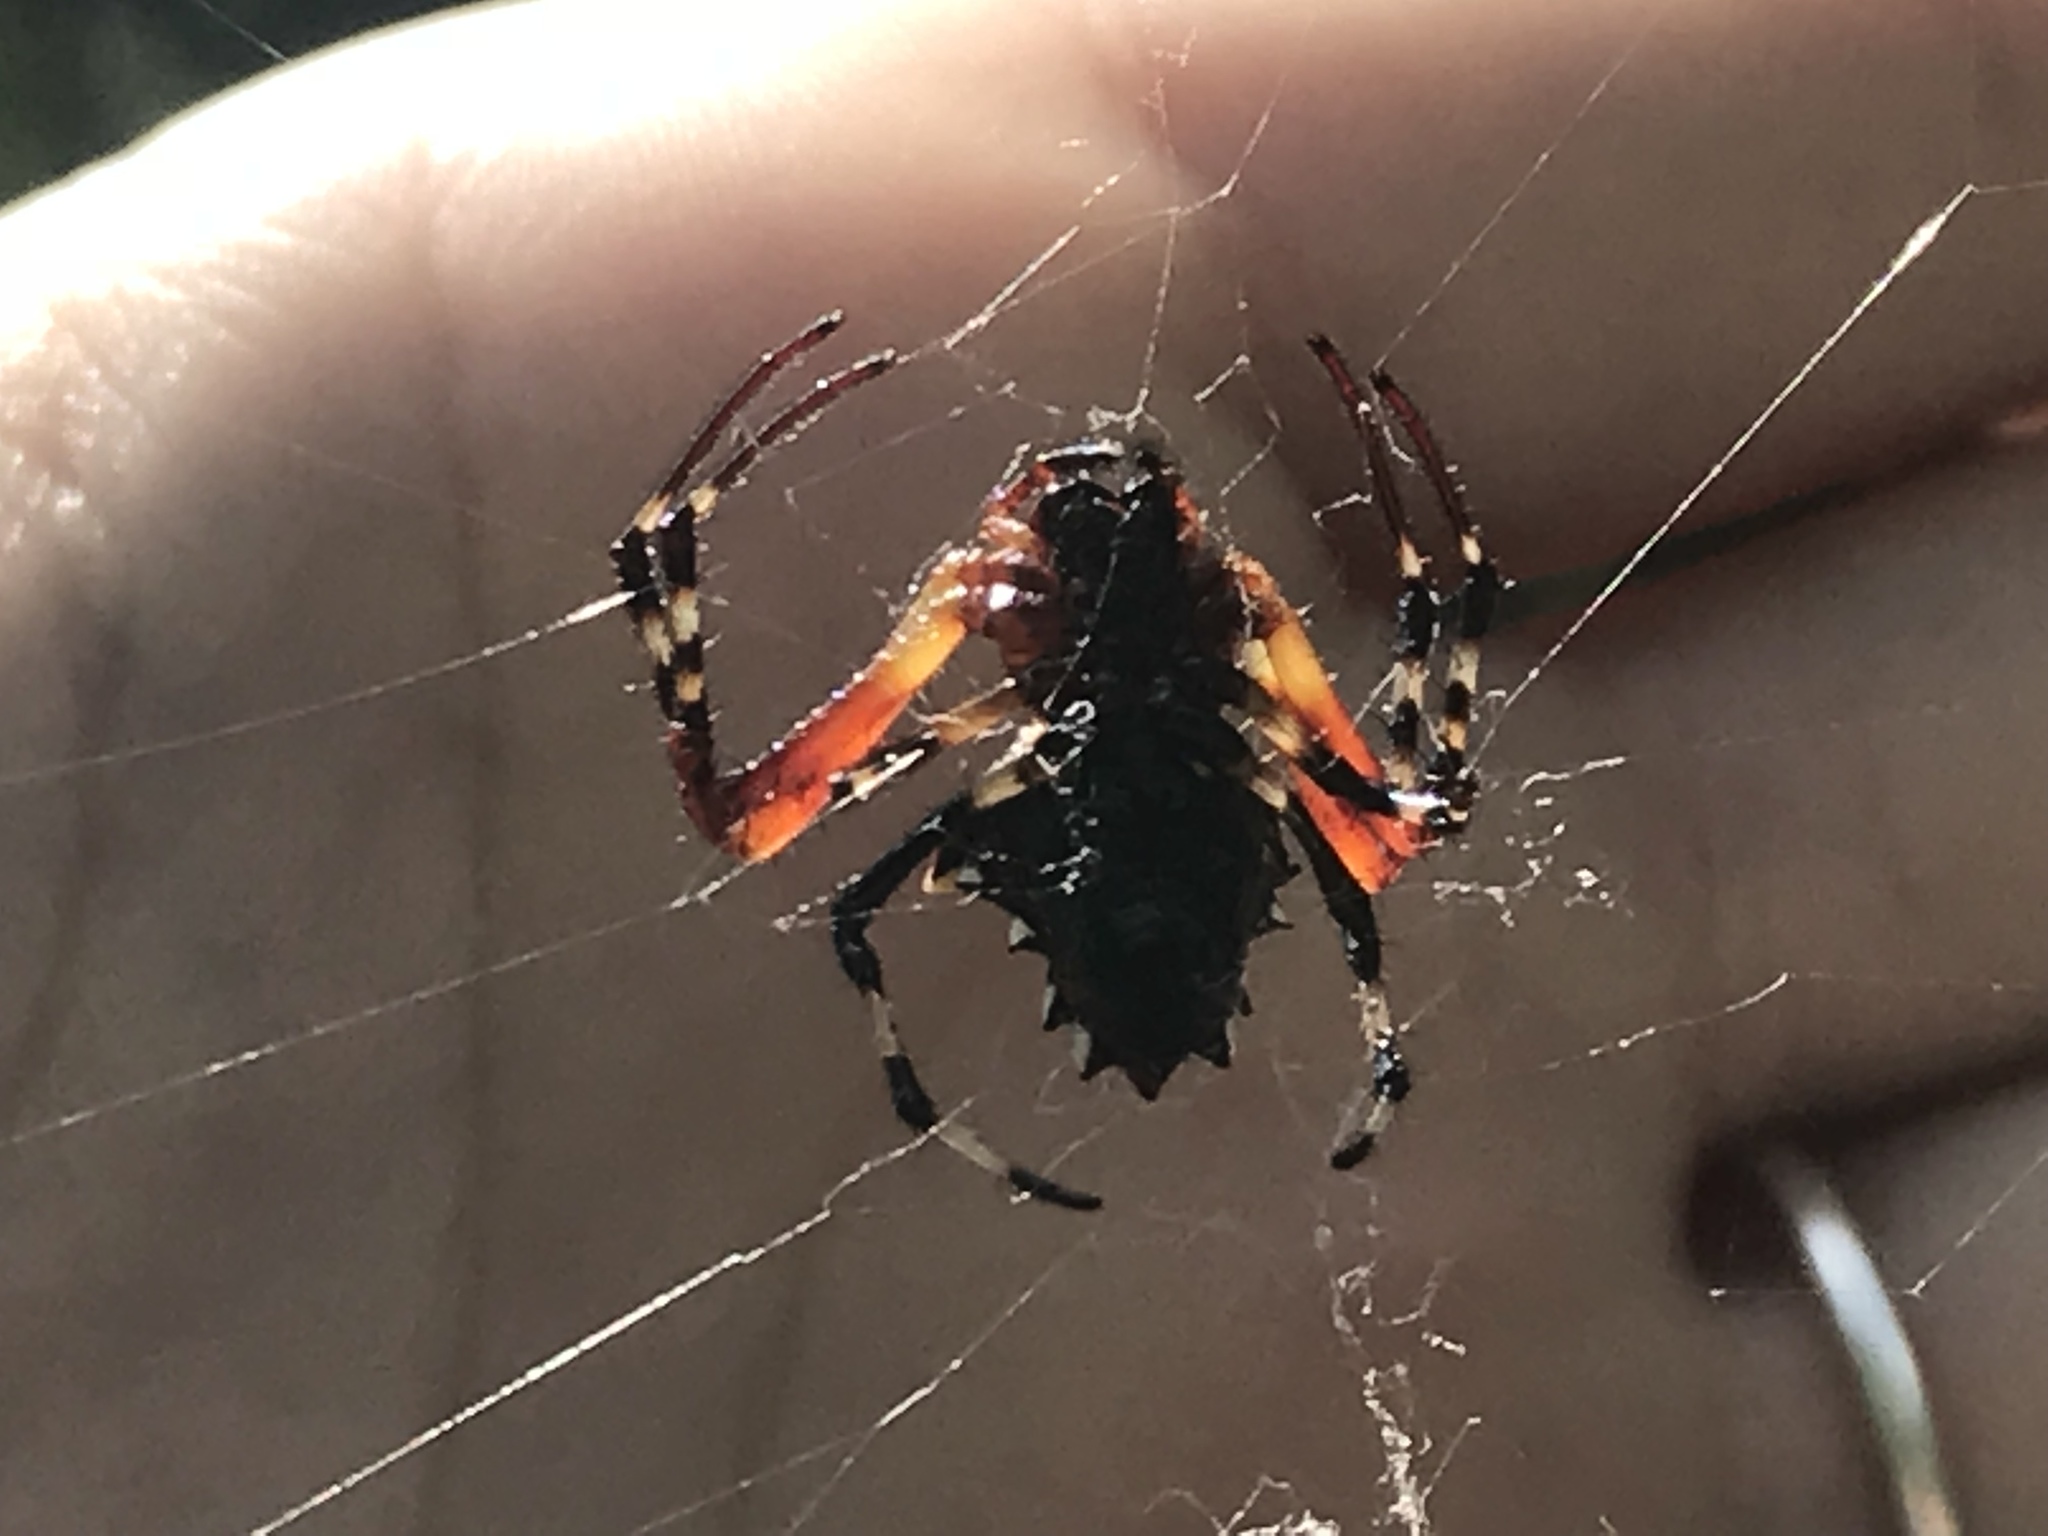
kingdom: Animalia
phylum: Arthropoda
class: Arachnida
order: Araneae
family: Araneidae
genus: Verrucosa
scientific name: Verrucosa arenata
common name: Orb weavers
